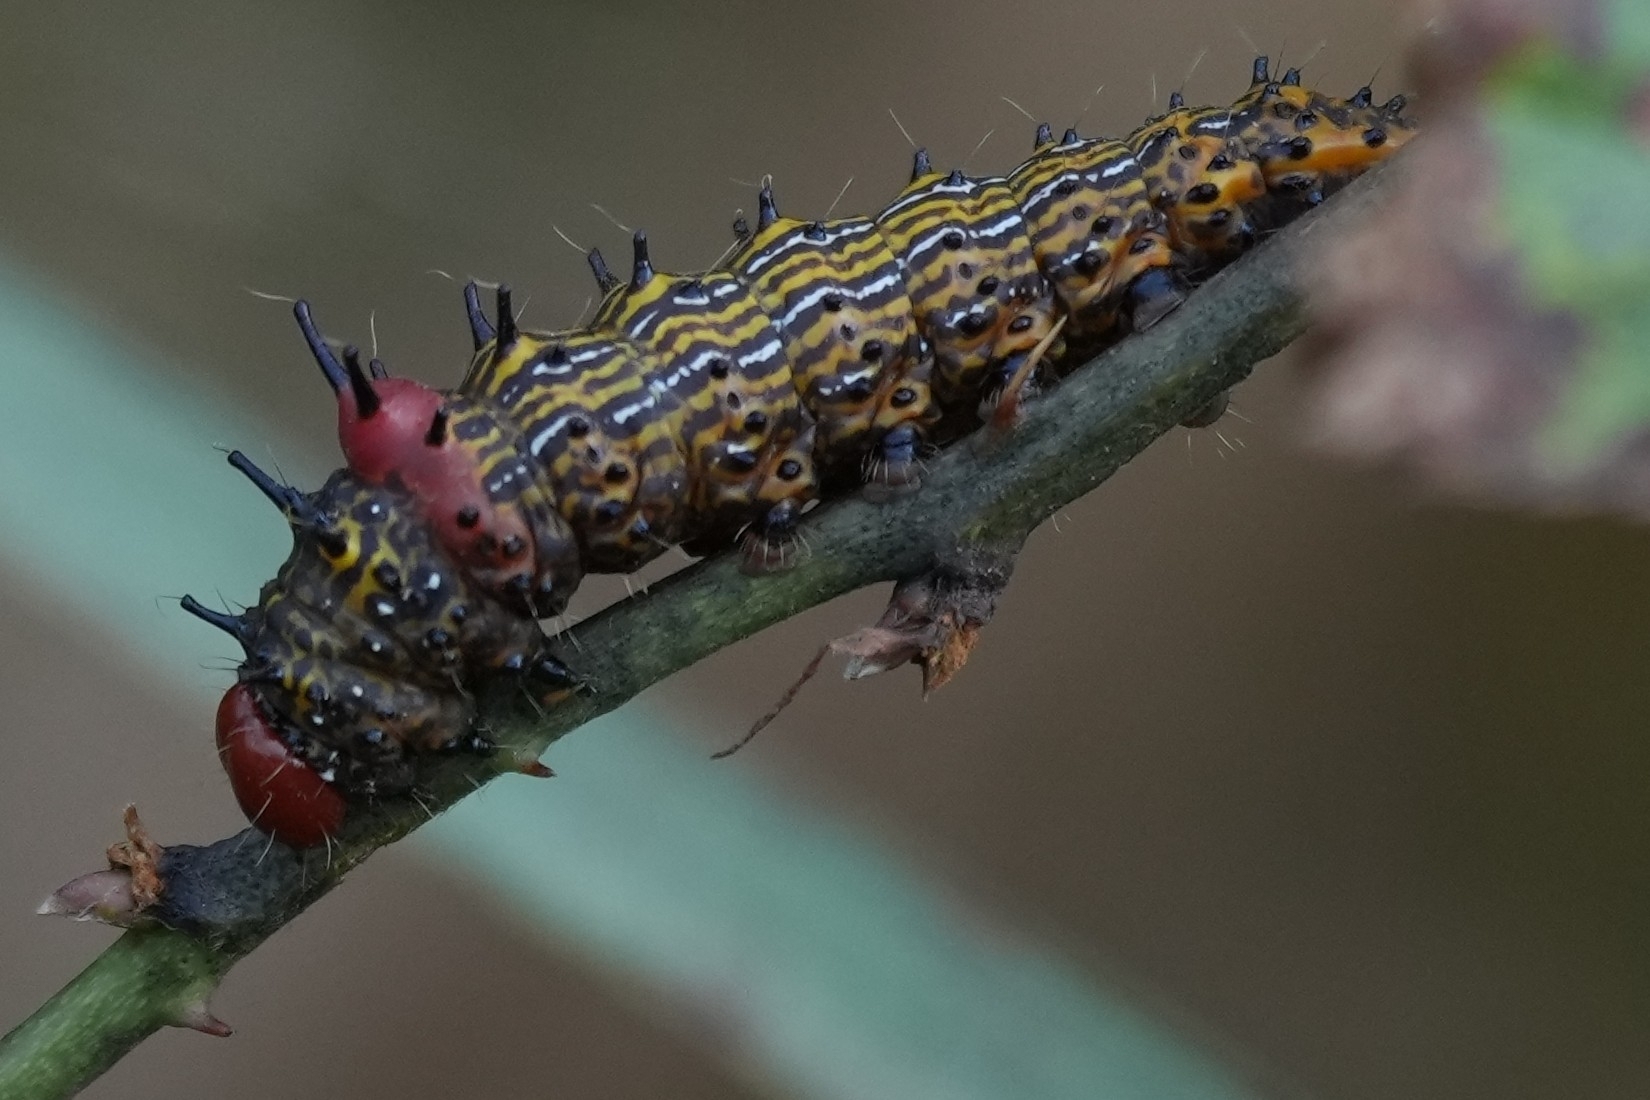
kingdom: Animalia
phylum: Arthropoda
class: Insecta
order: Lepidoptera
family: Notodontidae
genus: Schizura
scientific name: Schizura
